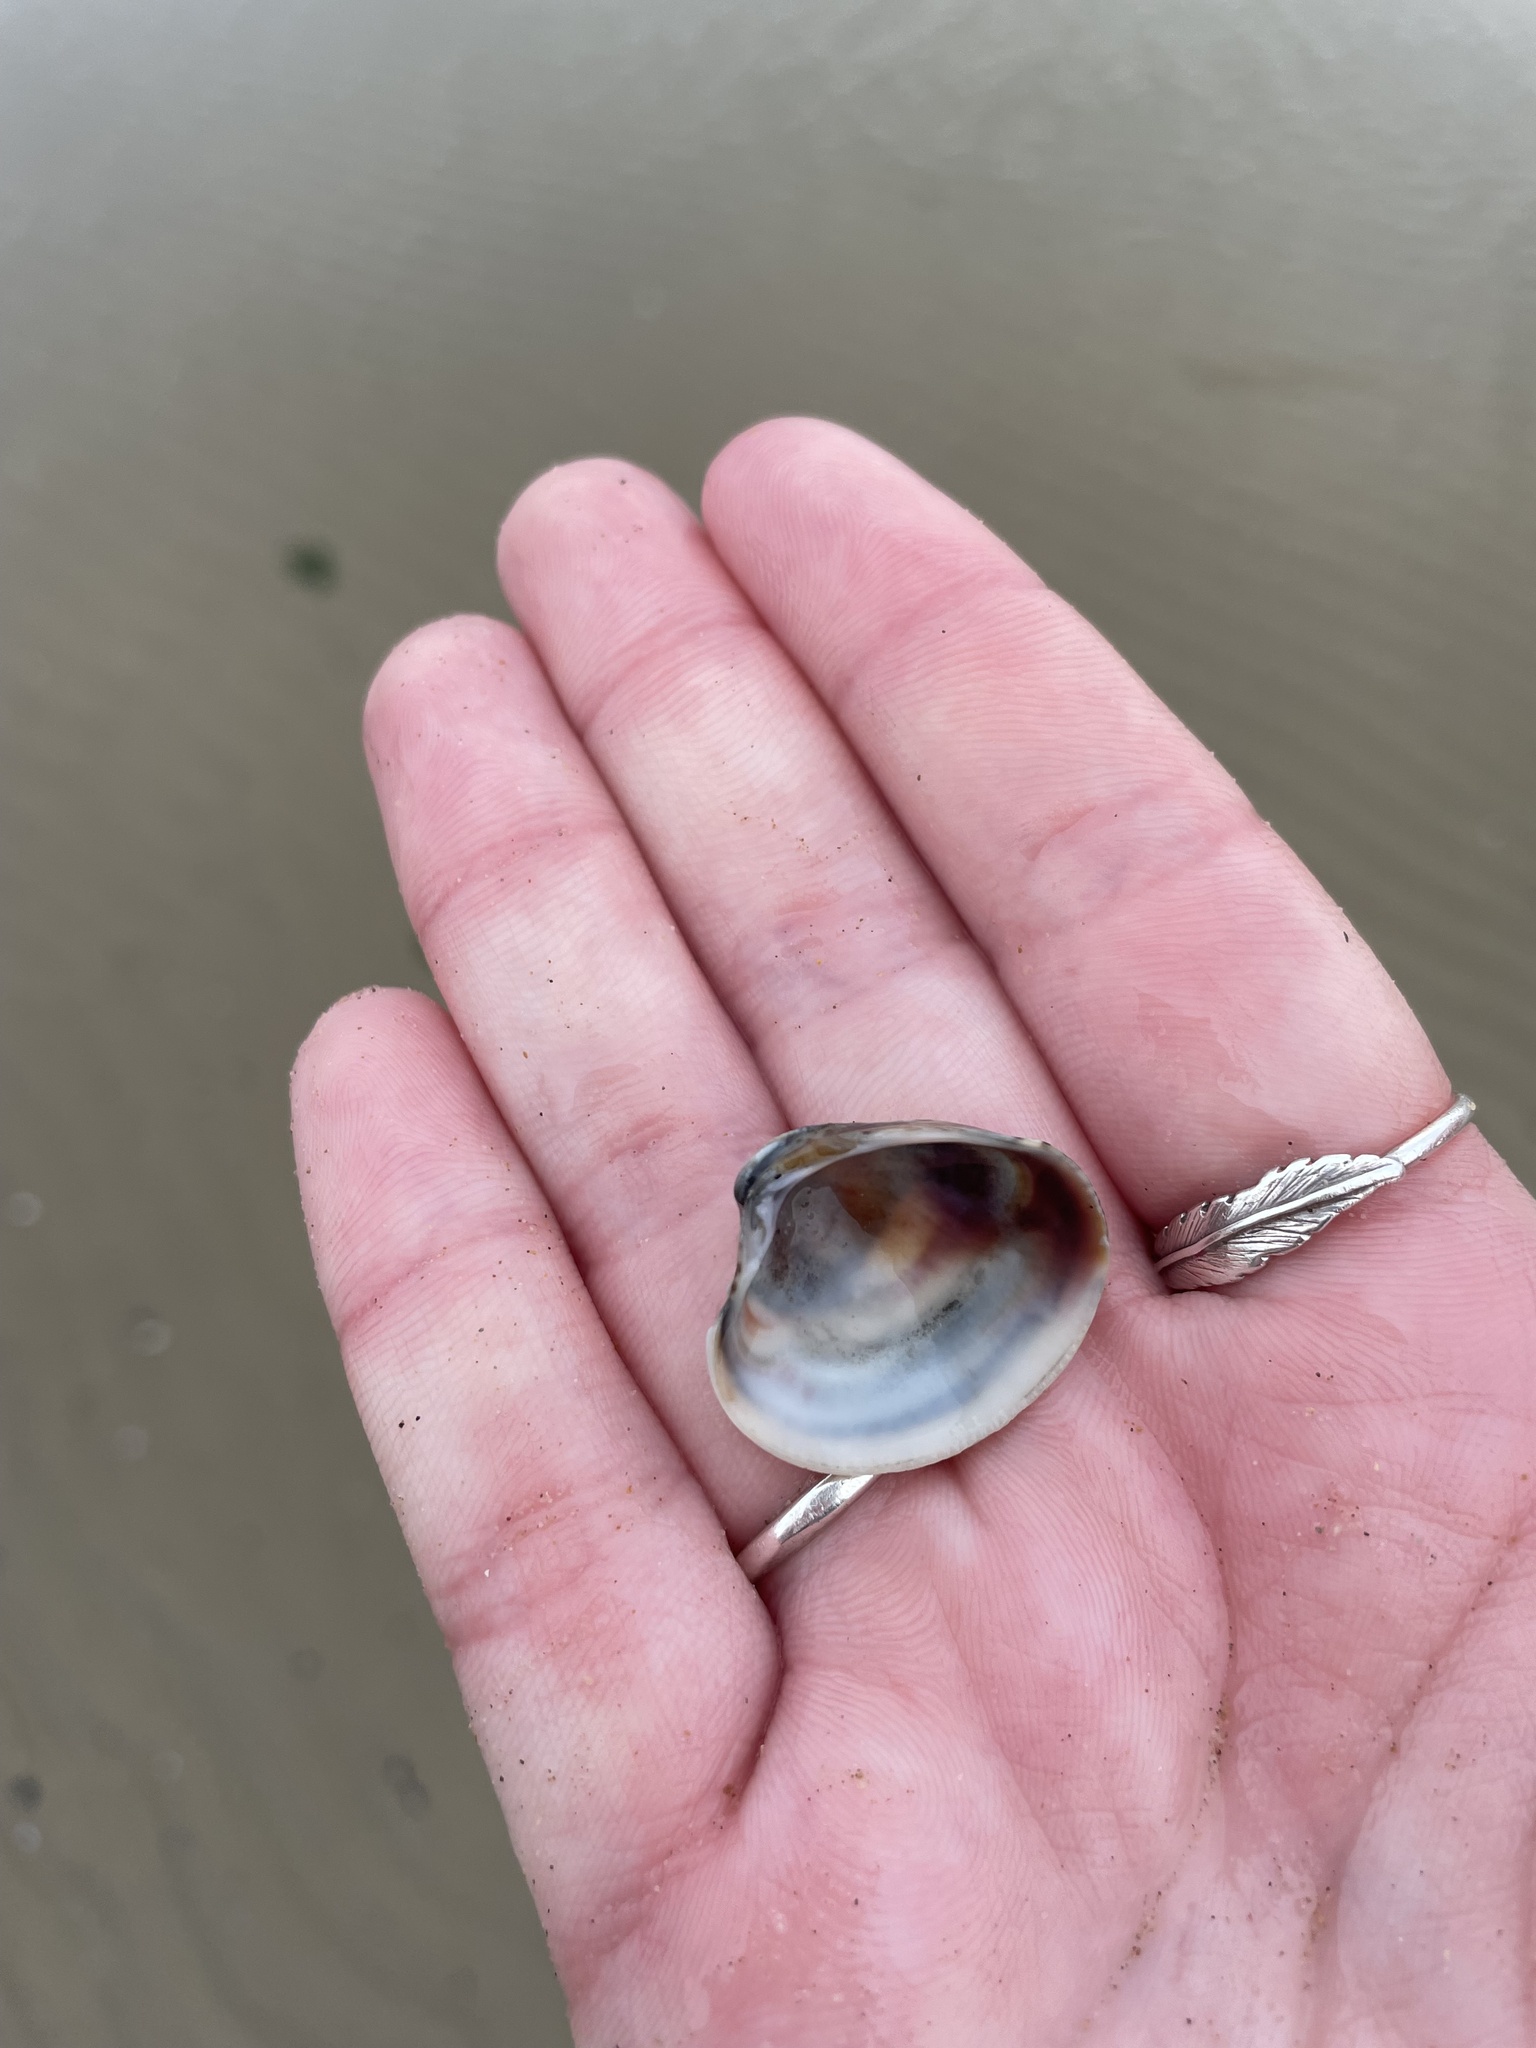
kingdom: Animalia
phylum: Mollusca
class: Bivalvia
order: Venerida
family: Veneridae
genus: Chamelea
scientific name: Chamelea gallina
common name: Chicken venus
